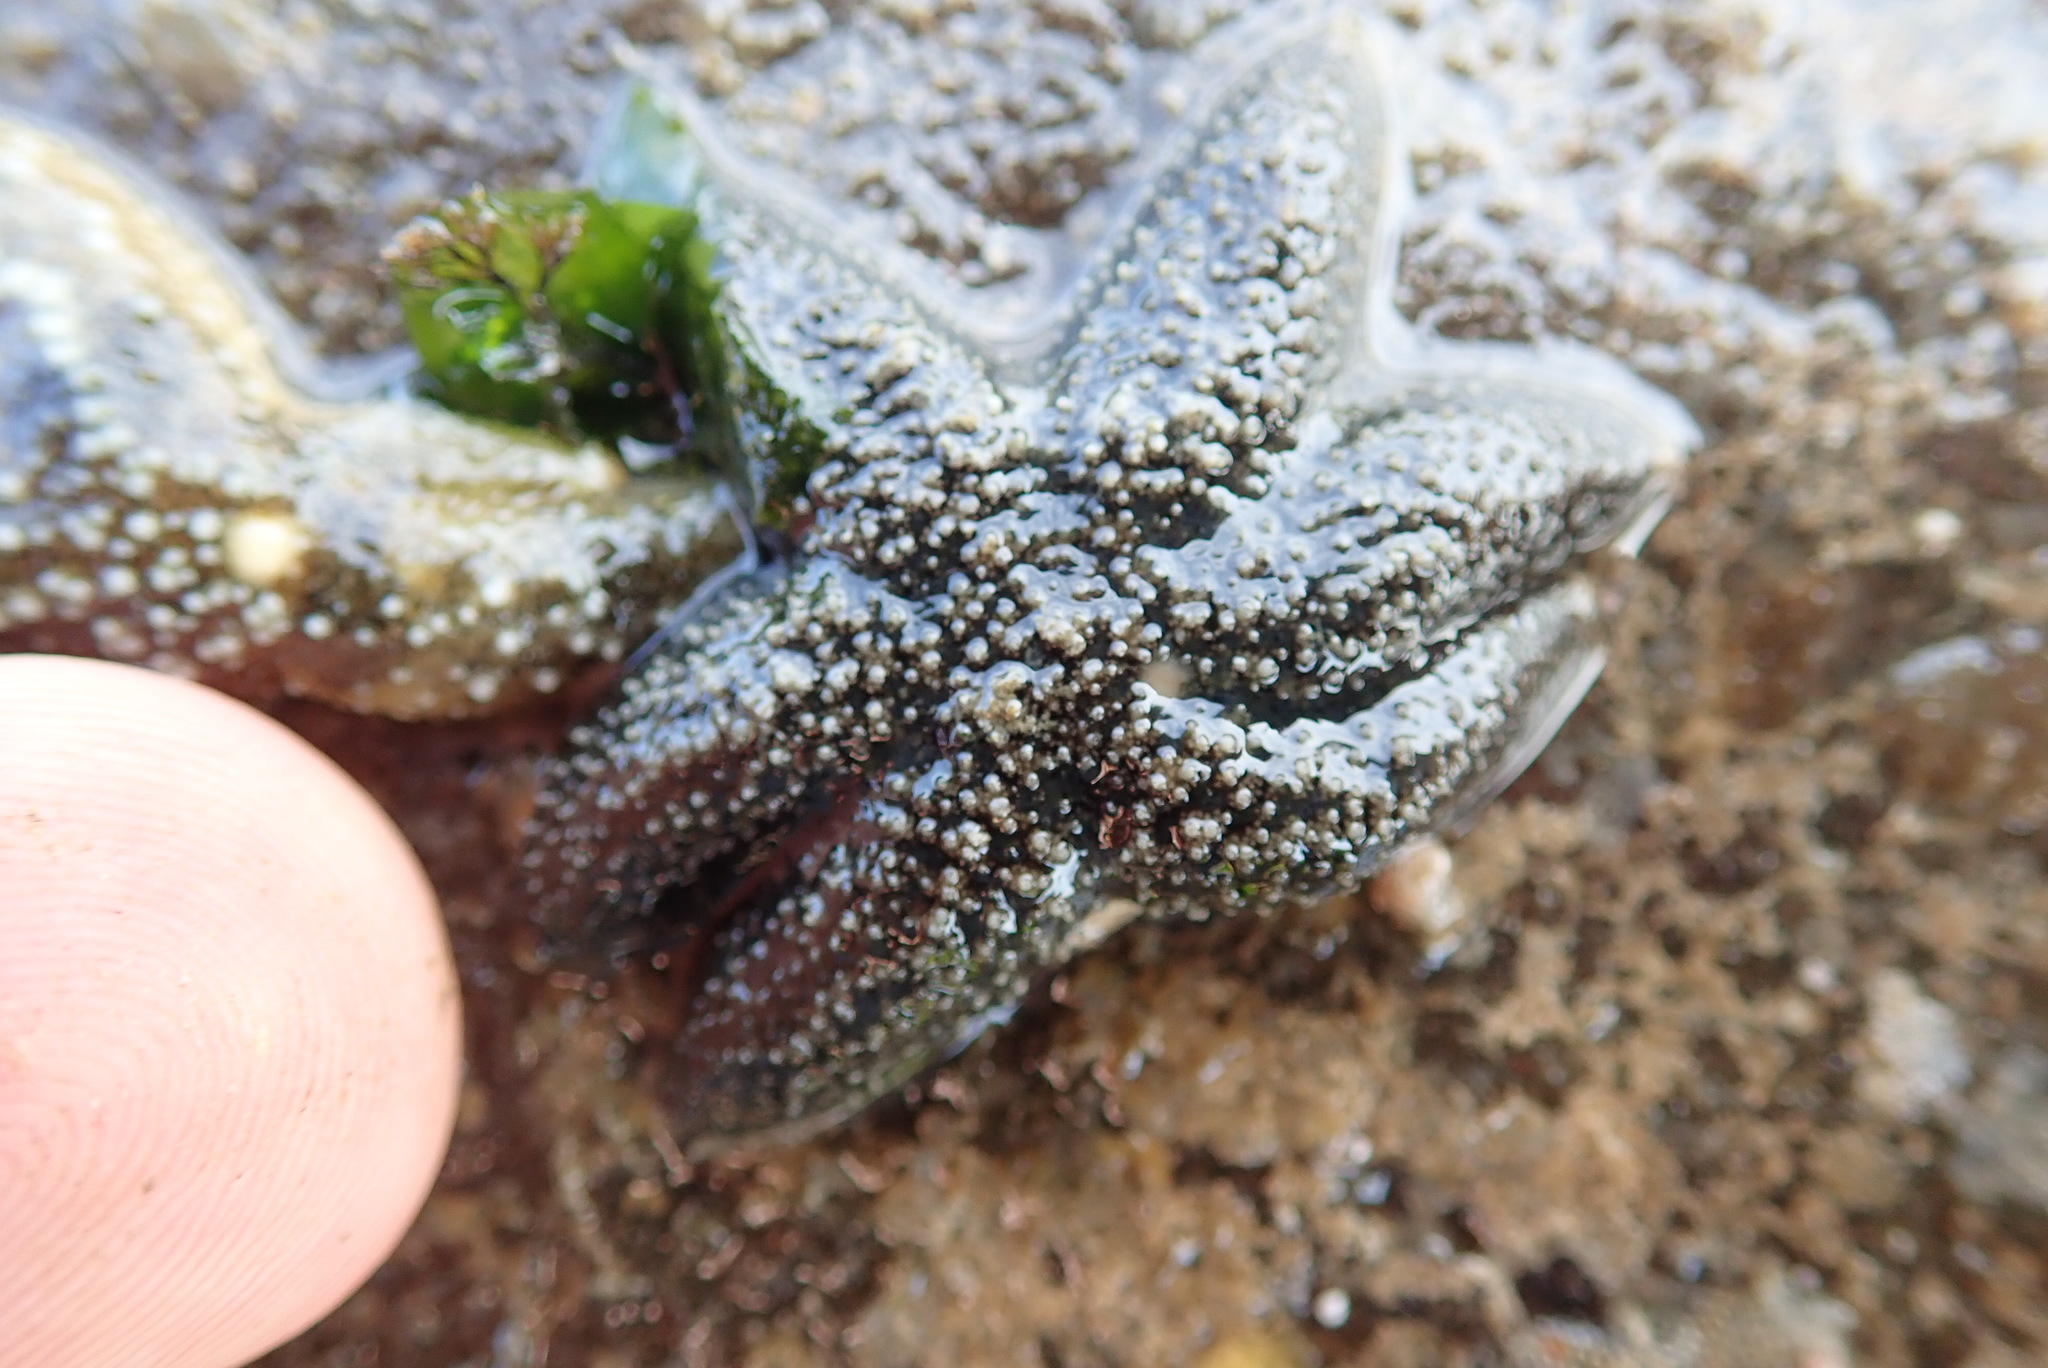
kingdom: Animalia
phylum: Echinodermata
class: Asteroidea
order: Forcipulatida
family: Asteriidae
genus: Leptasterias
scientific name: Leptasterias hexactis
